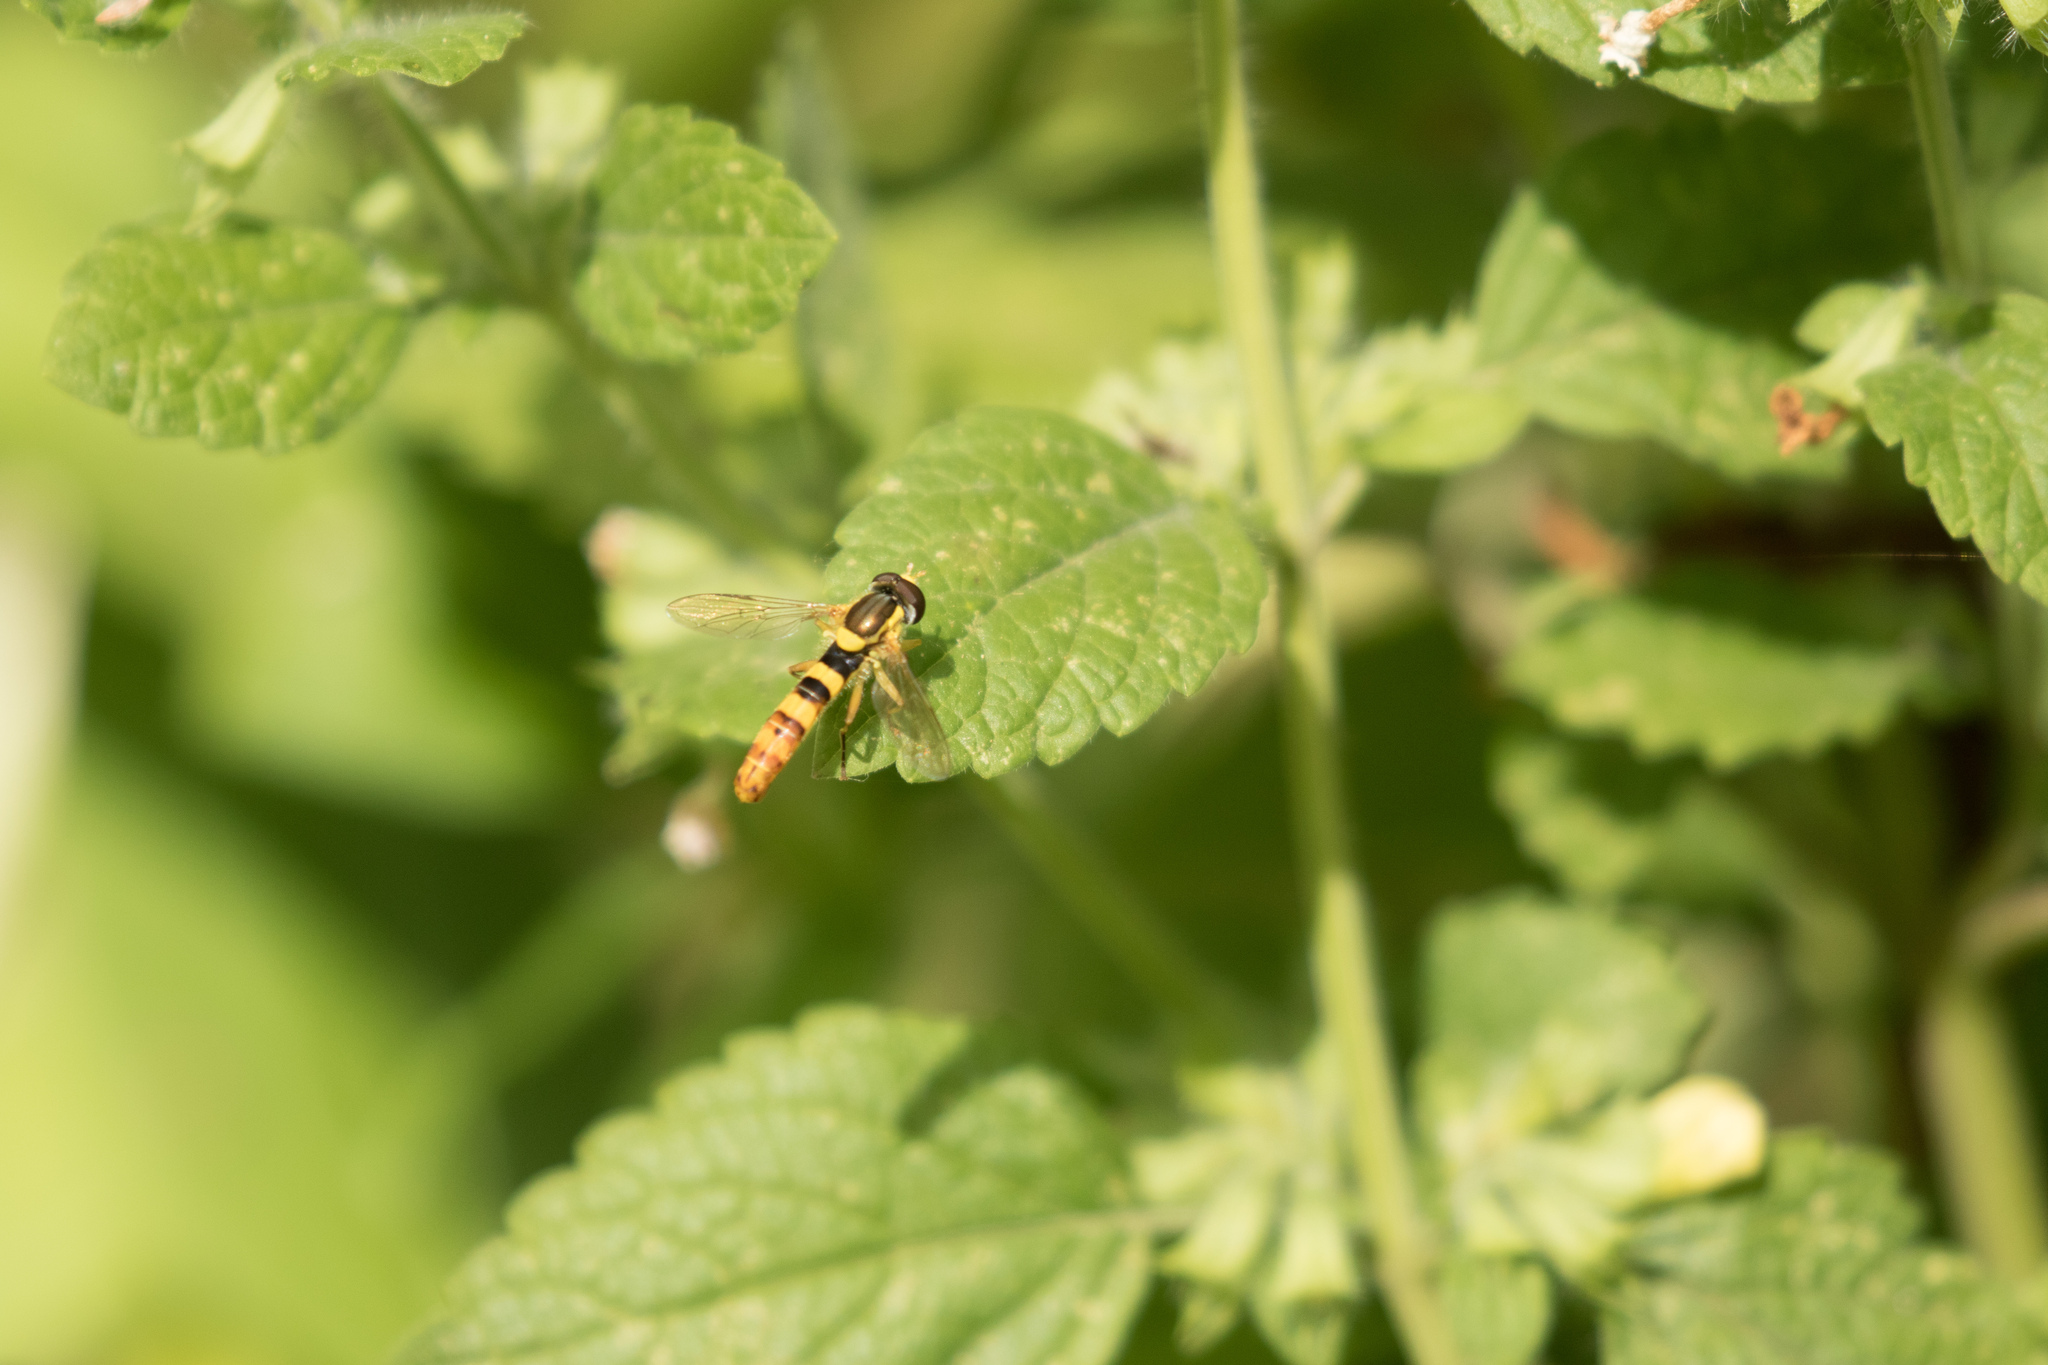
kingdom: Animalia
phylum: Arthropoda
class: Insecta
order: Diptera
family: Syrphidae
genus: Sphaerophoria
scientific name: Sphaerophoria scripta
